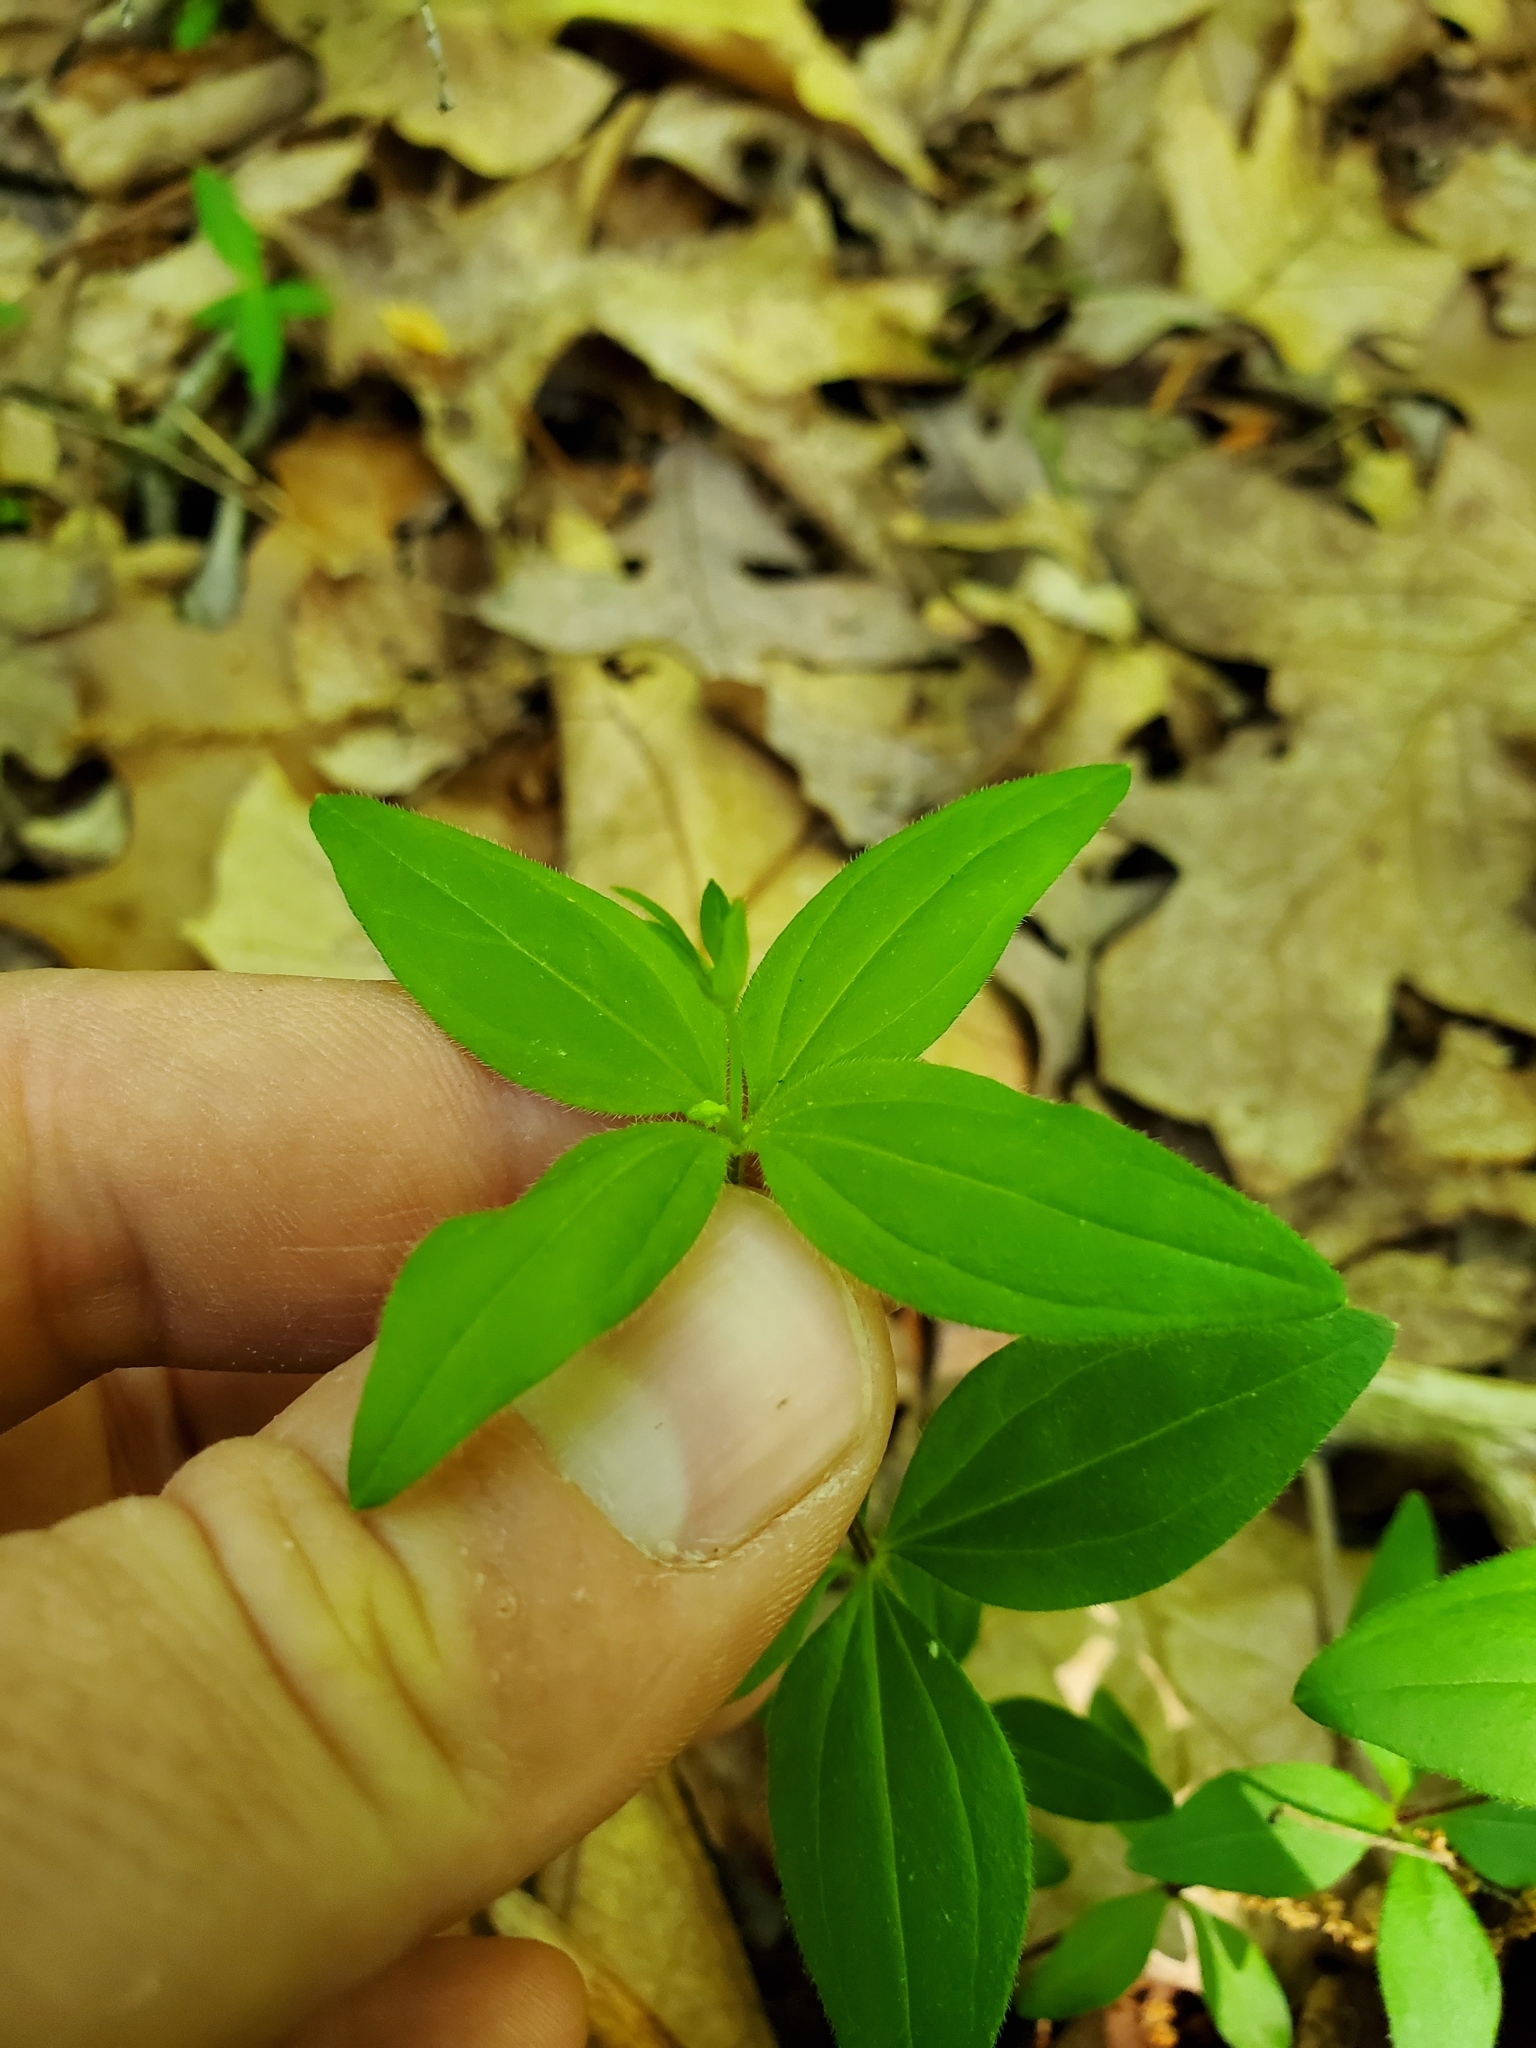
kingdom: Plantae
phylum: Tracheophyta
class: Magnoliopsida
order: Gentianales
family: Rubiaceae
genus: Galium
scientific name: Galium circaezans
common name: Forest bedstraw
